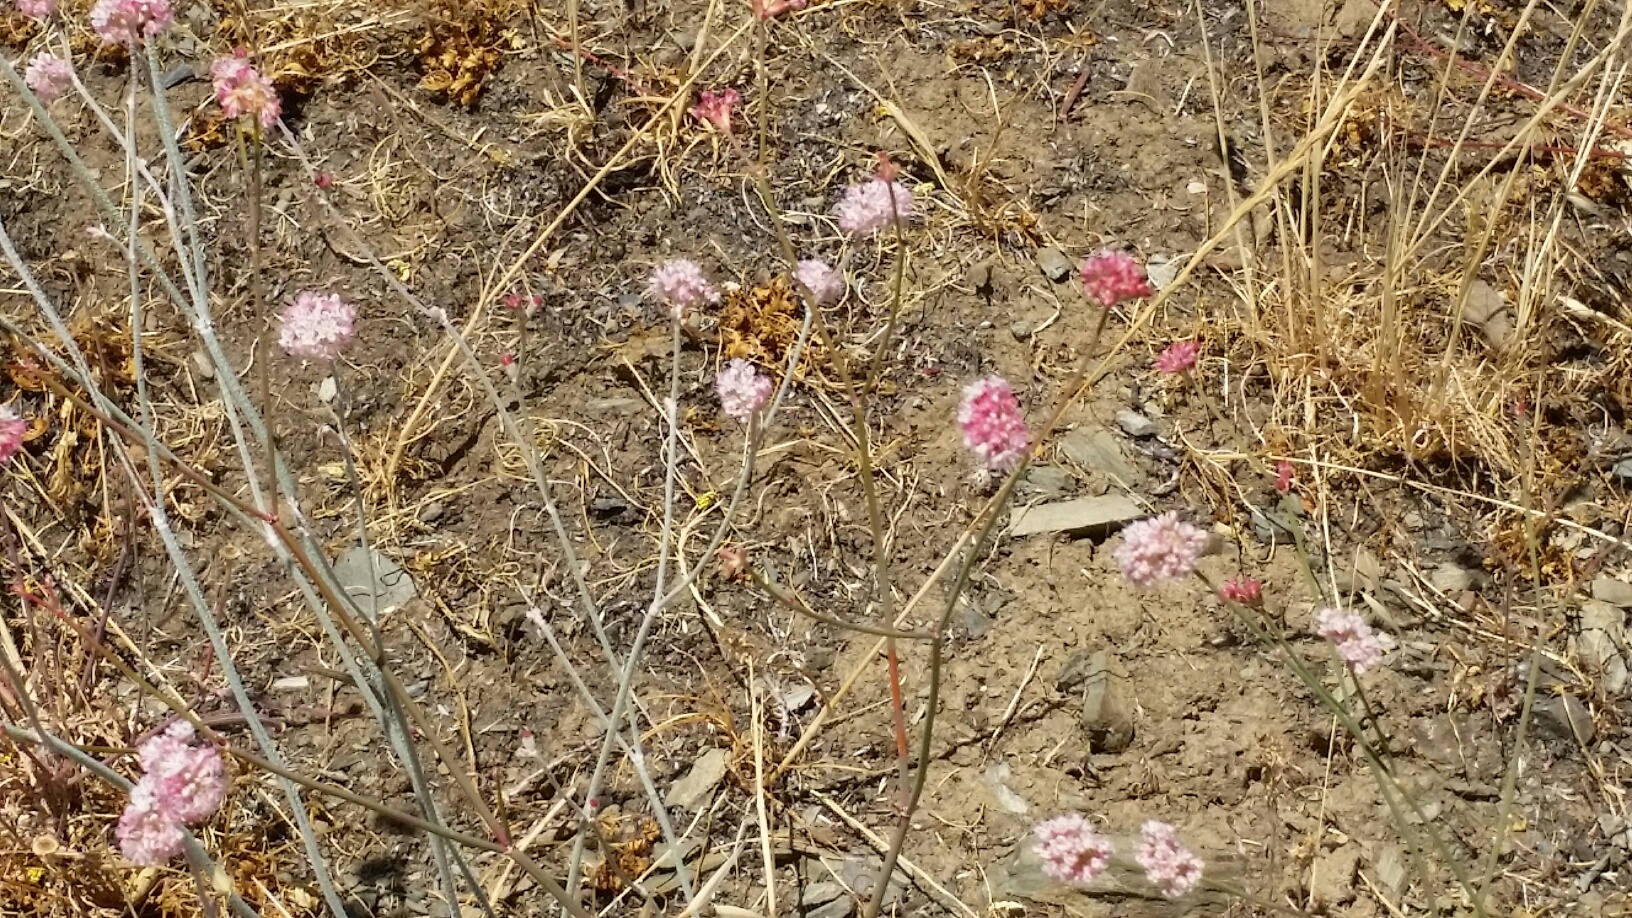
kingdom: Plantae
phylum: Tracheophyta
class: Magnoliopsida
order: Caryophyllales
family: Polygonaceae
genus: Eriogonum
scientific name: Eriogonum nudum
